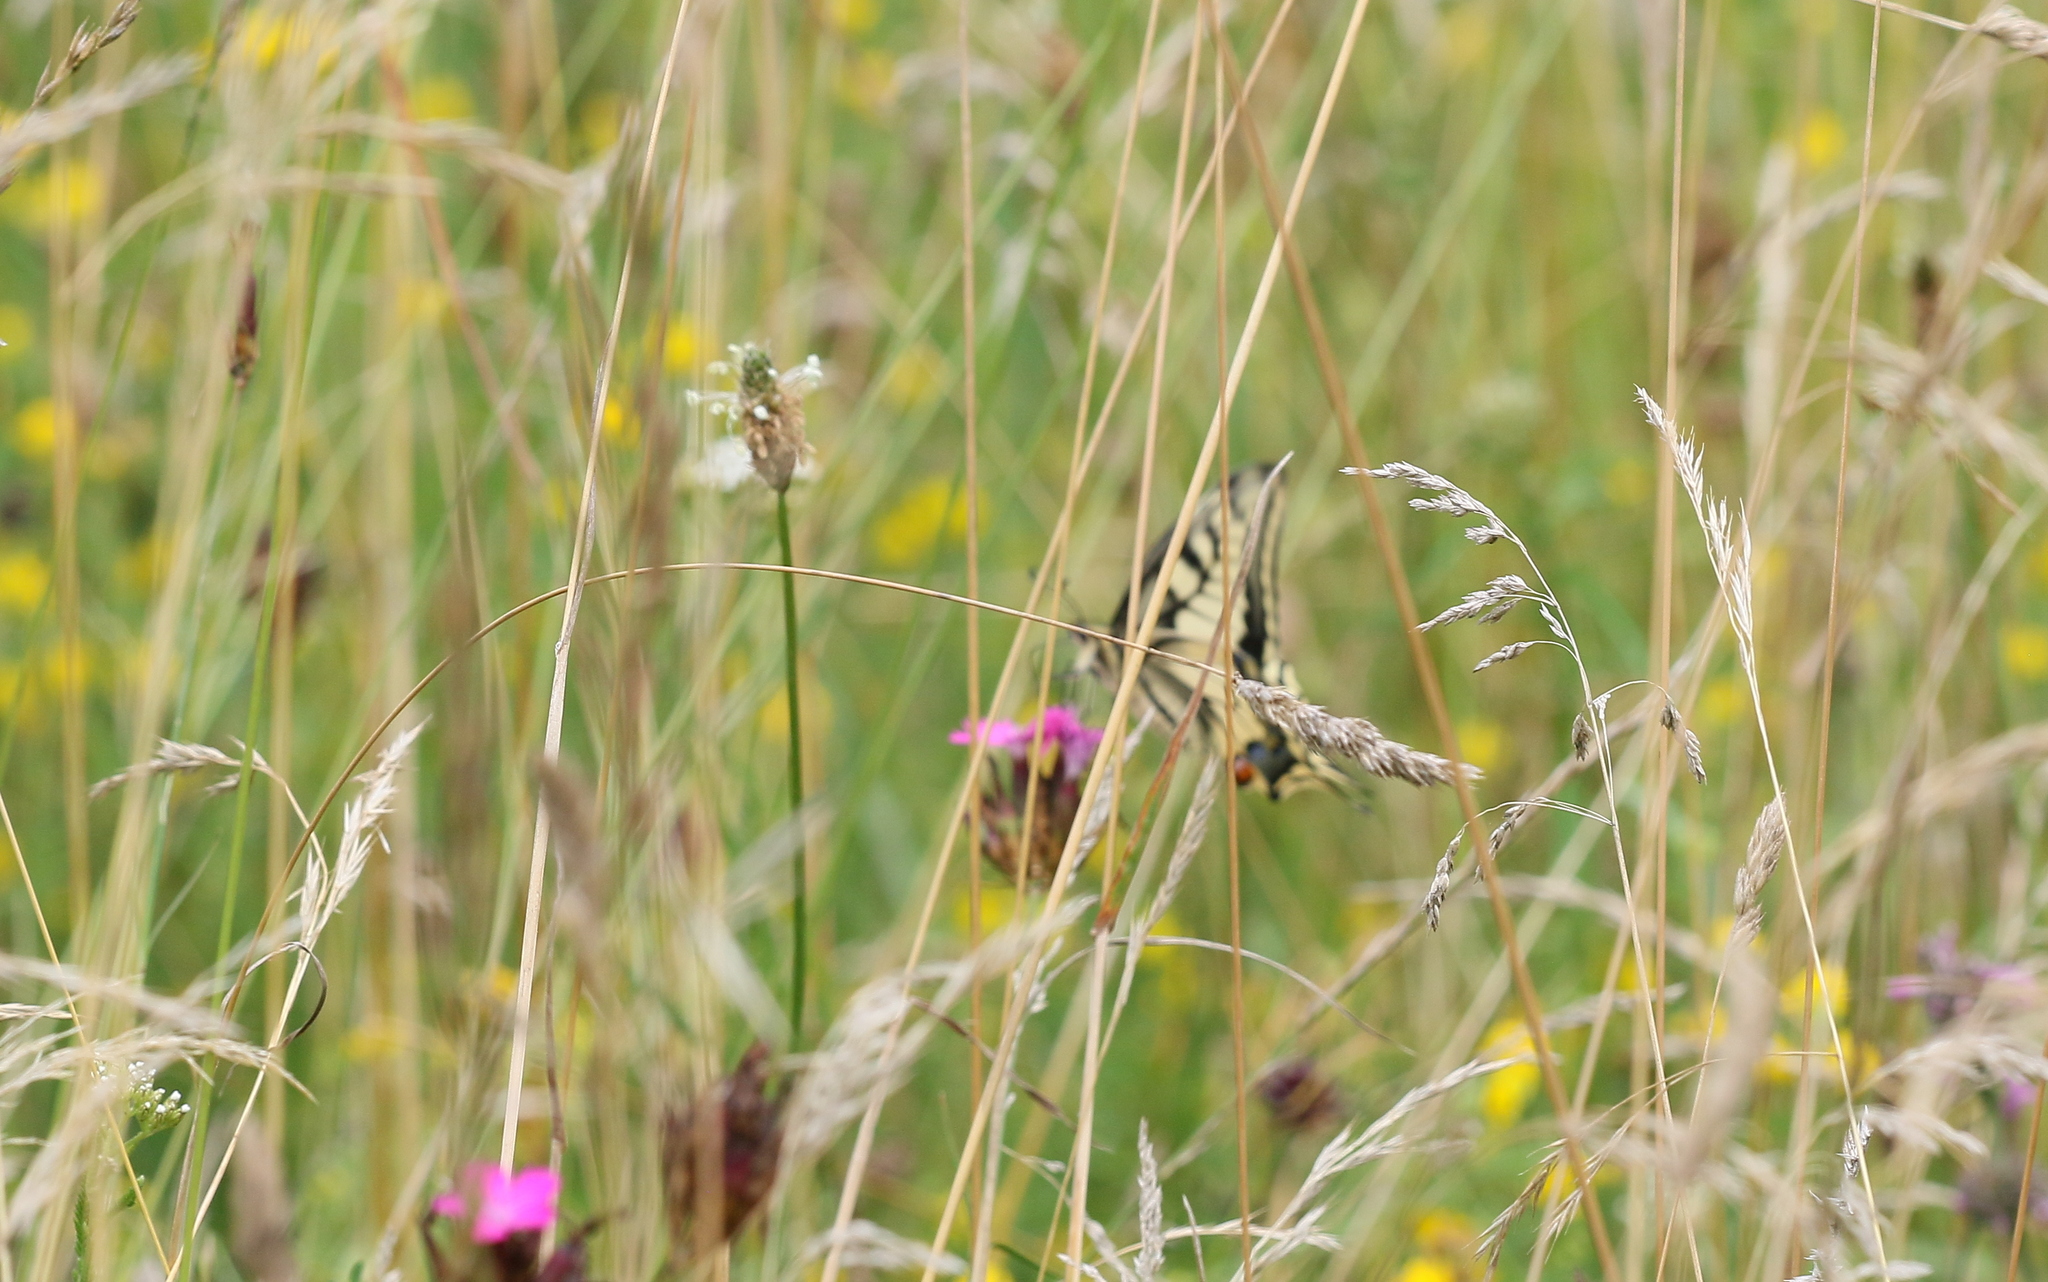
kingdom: Animalia
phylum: Arthropoda
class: Insecta
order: Lepidoptera
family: Papilionidae
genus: Papilio
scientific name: Papilio machaon
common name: Swallowtail
